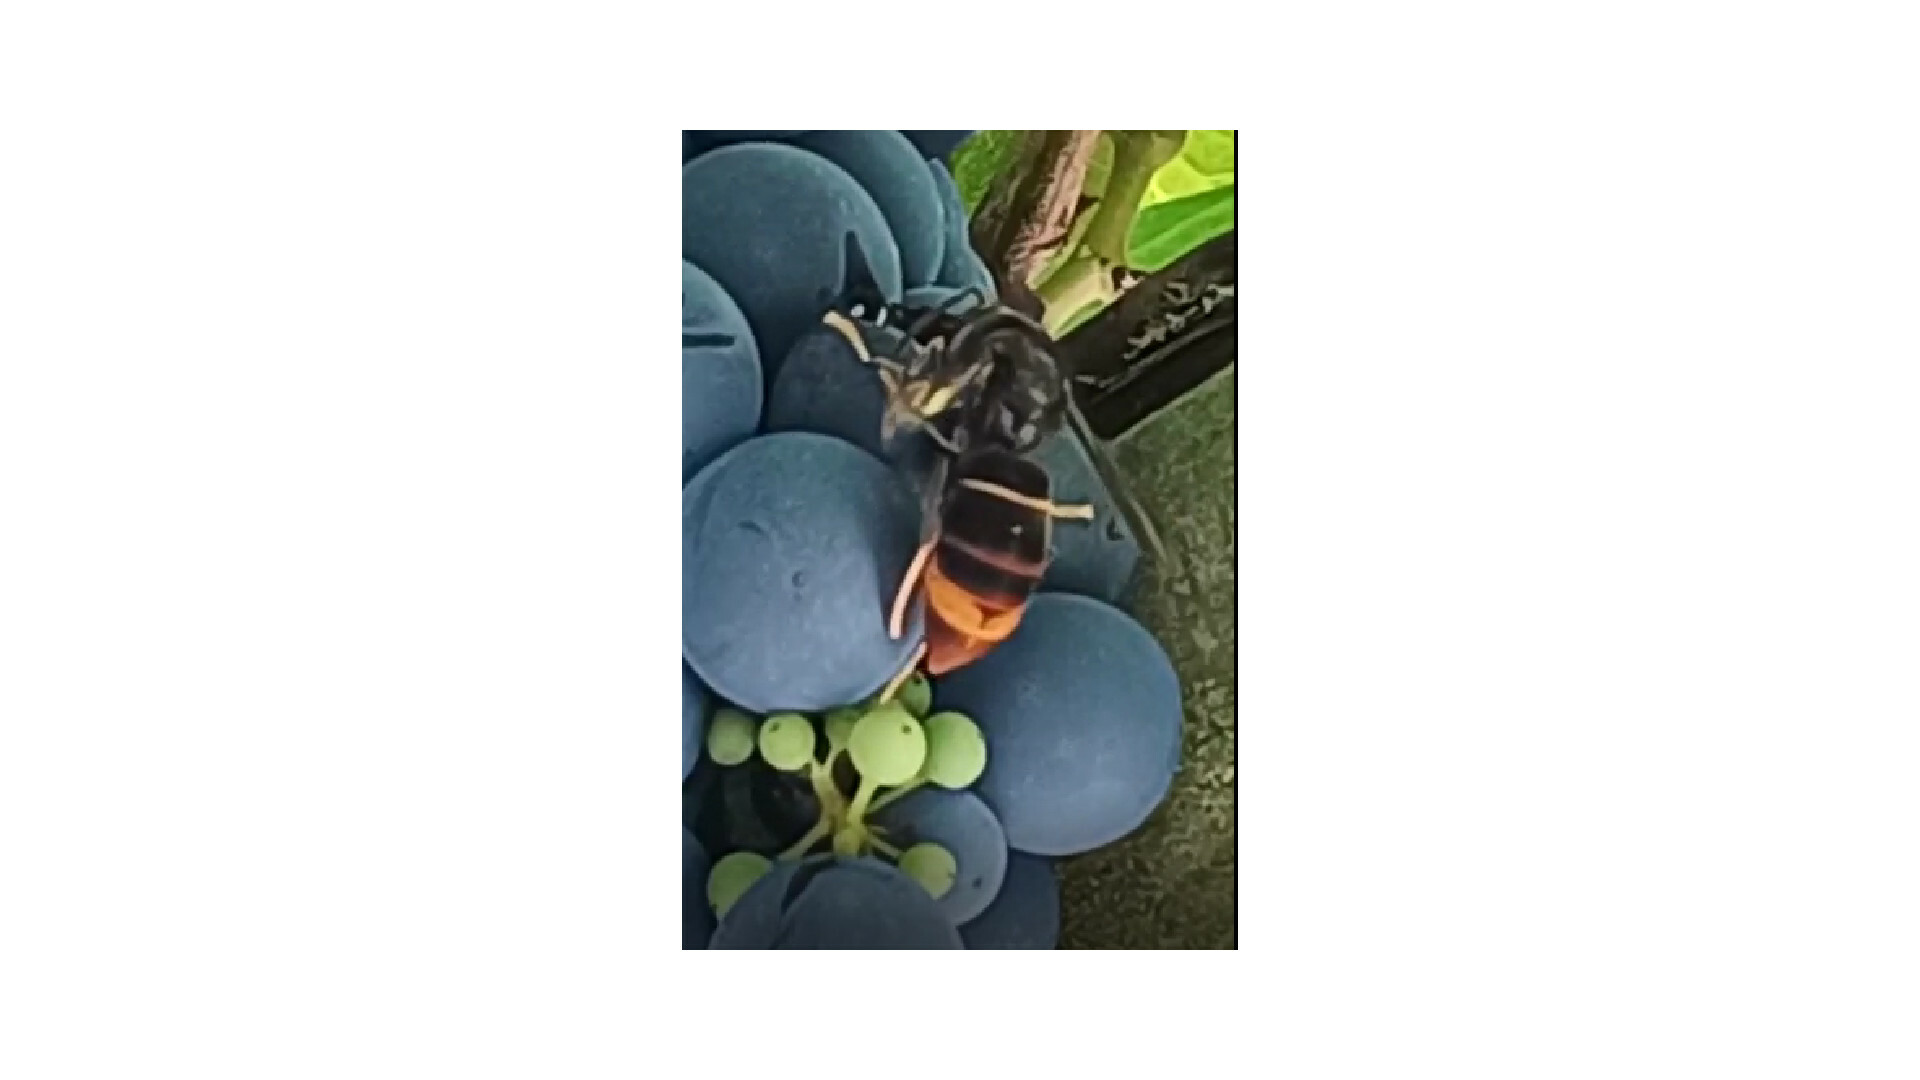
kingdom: Animalia
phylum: Arthropoda
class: Insecta
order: Hymenoptera
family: Vespidae
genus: Vespa
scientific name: Vespa velutina
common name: Asian hornet
